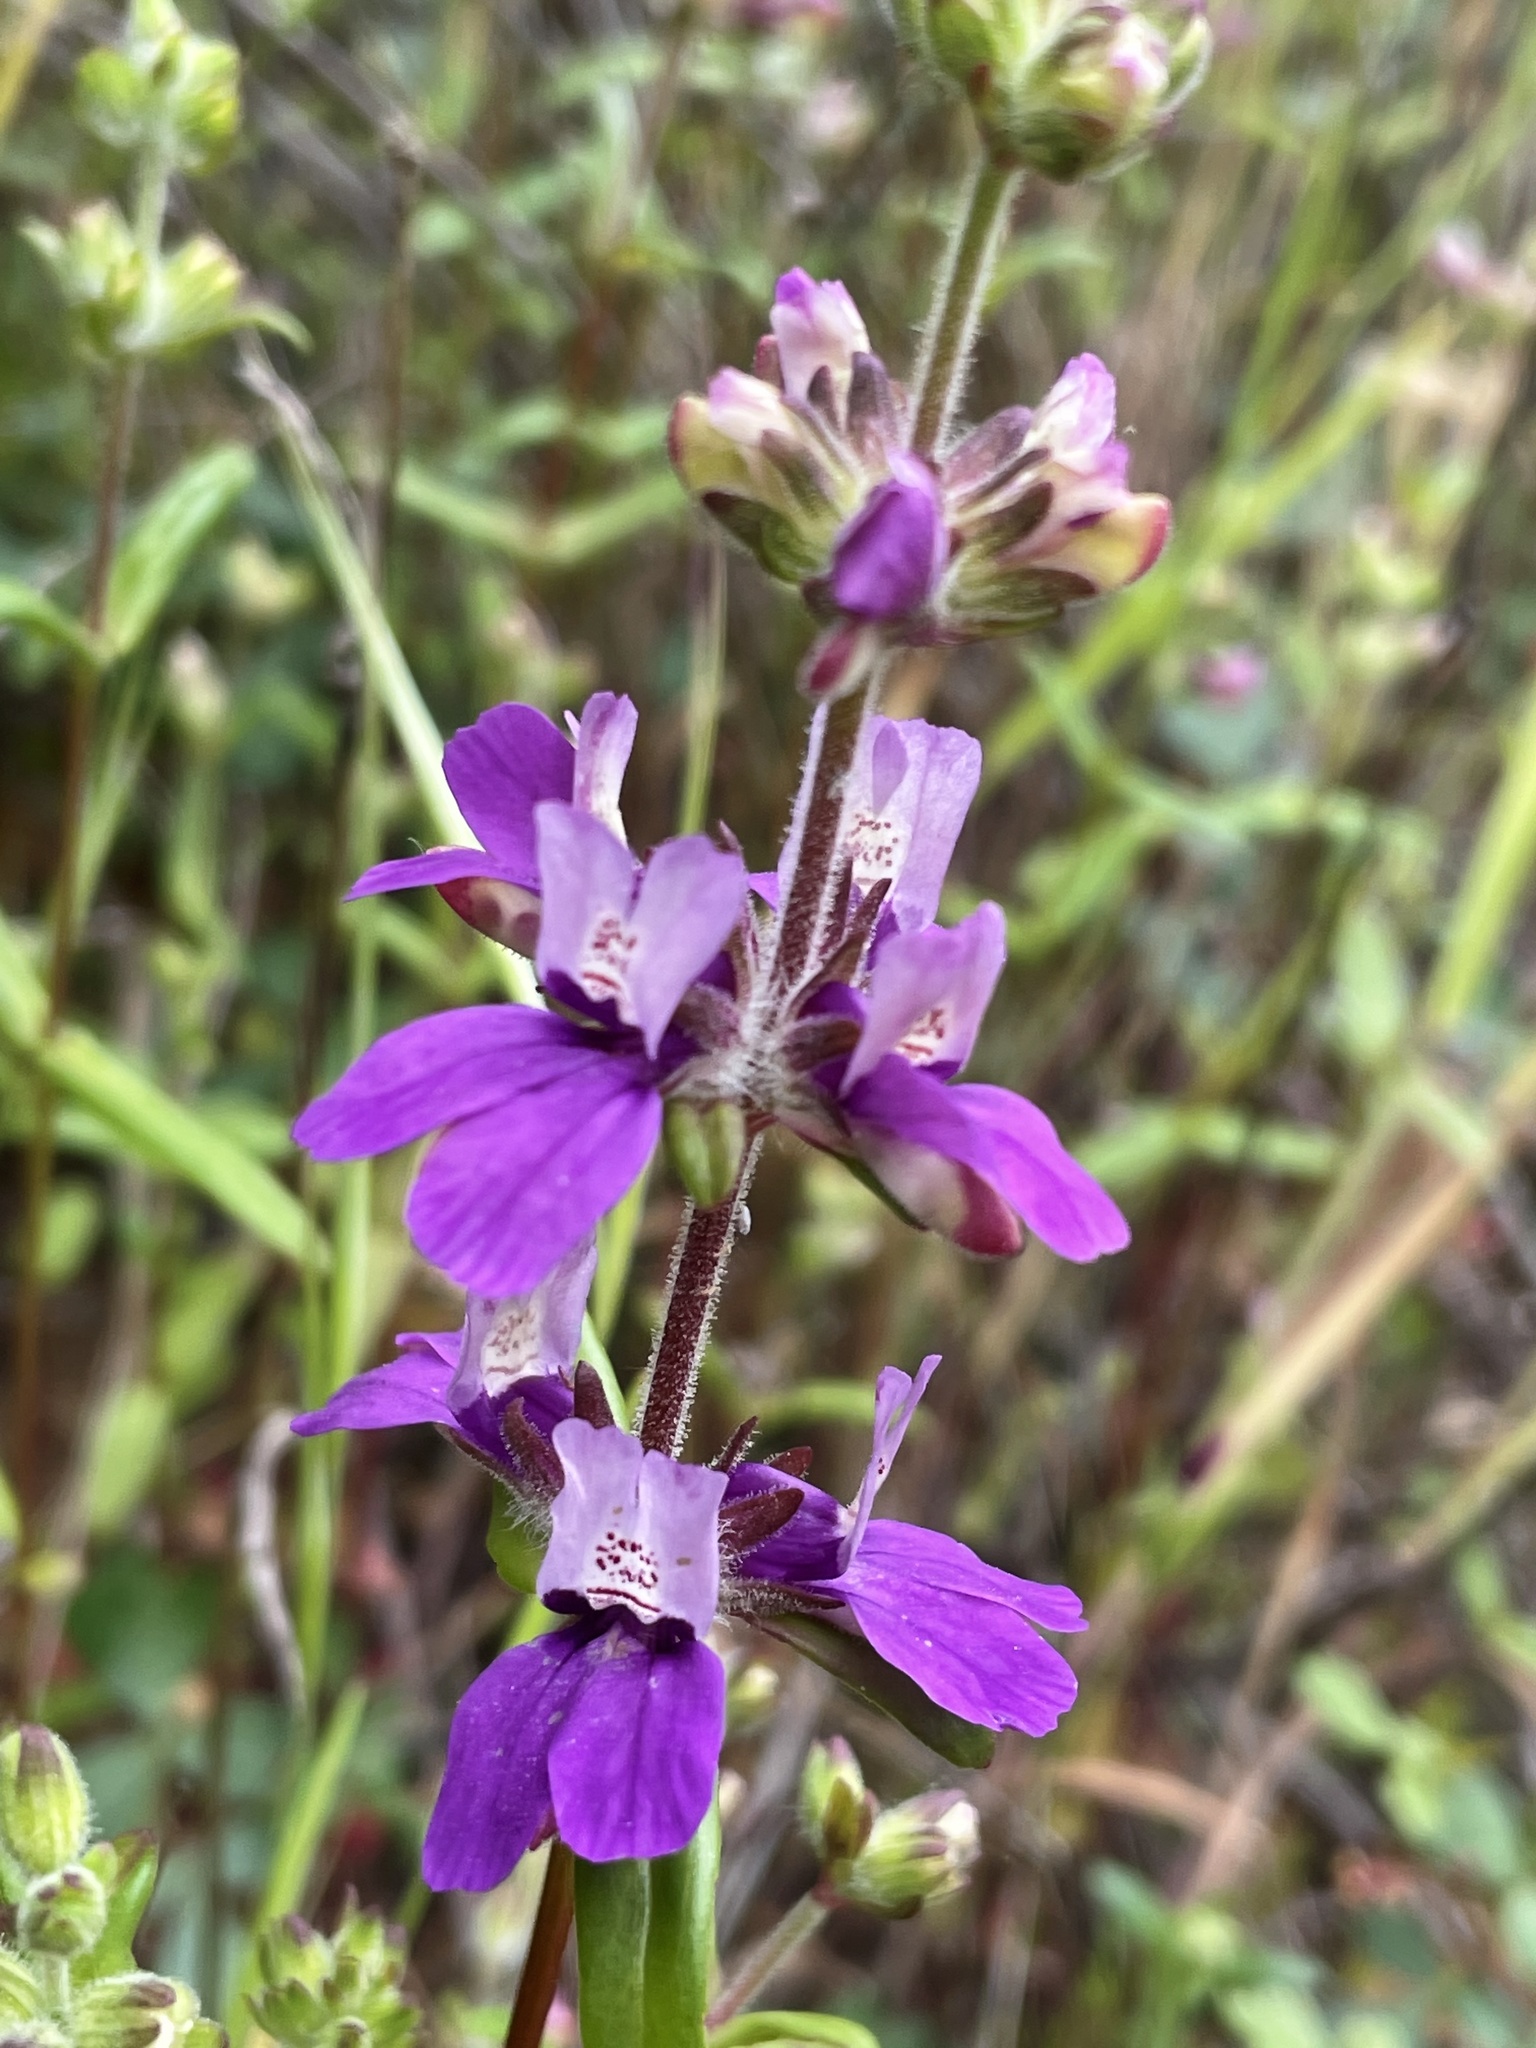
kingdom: Plantae
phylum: Tracheophyta
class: Magnoliopsida
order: Lamiales
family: Plantaginaceae
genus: Collinsia
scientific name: Collinsia heterophylla
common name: Chinese-houses
